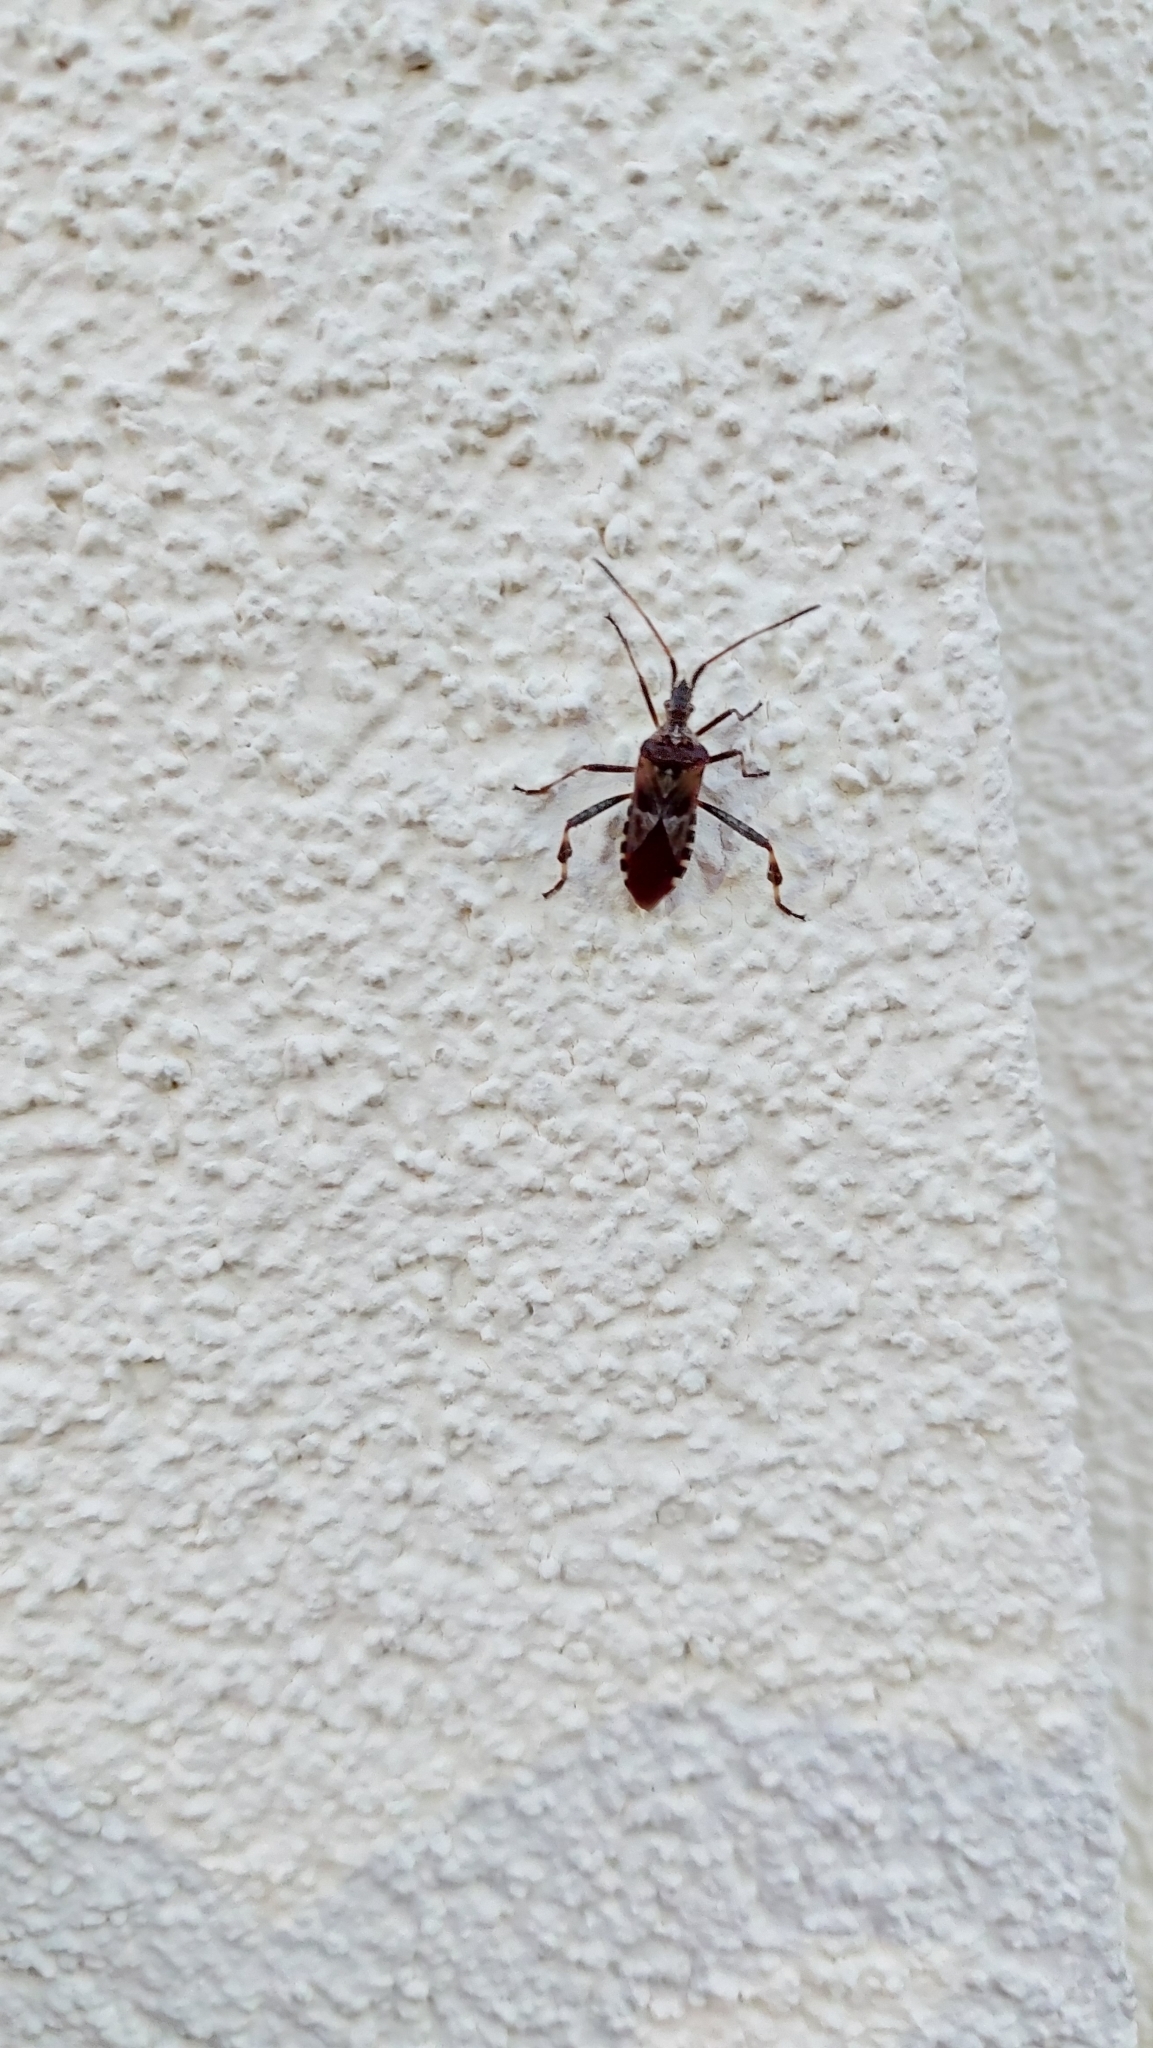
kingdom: Animalia
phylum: Arthropoda
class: Insecta
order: Hemiptera
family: Coreidae
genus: Leptoglossus
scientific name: Leptoglossus occidentalis
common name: Western conifer-seed bug
